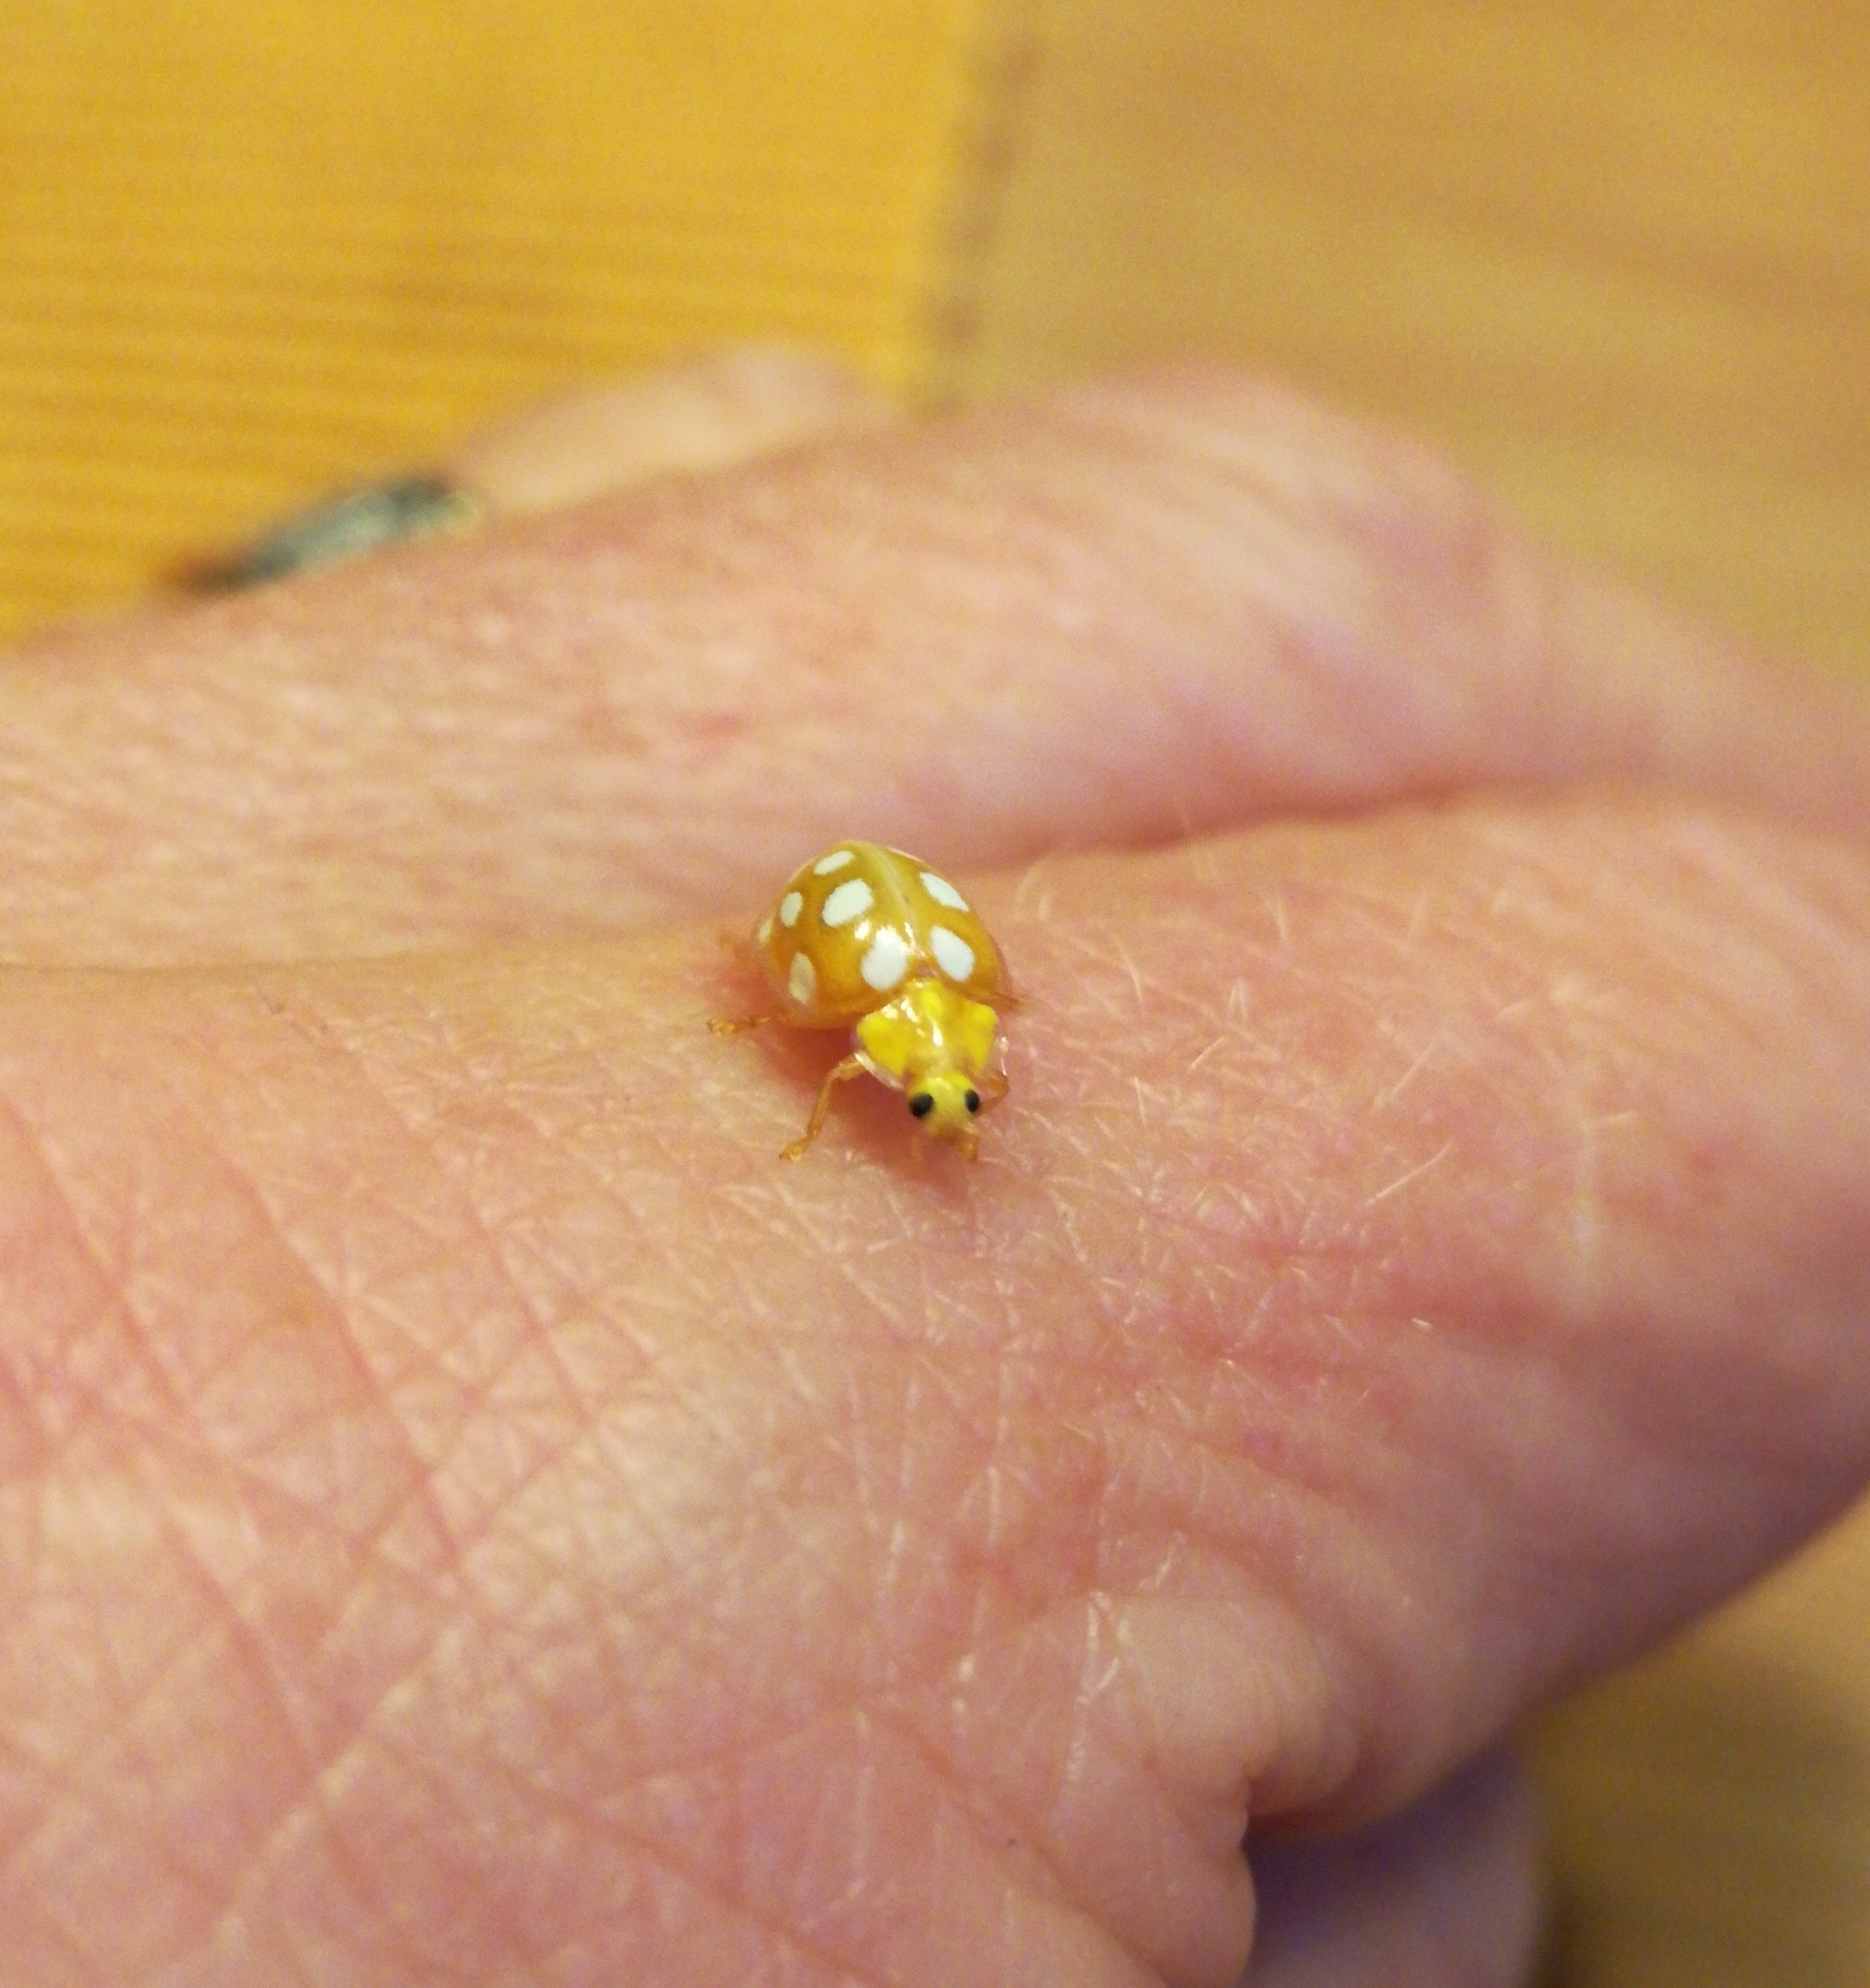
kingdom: Animalia
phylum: Arthropoda
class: Insecta
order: Coleoptera
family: Coccinellidae
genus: Halyzia
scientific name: Halyzia sedecimguttata
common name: Orange ladybird
